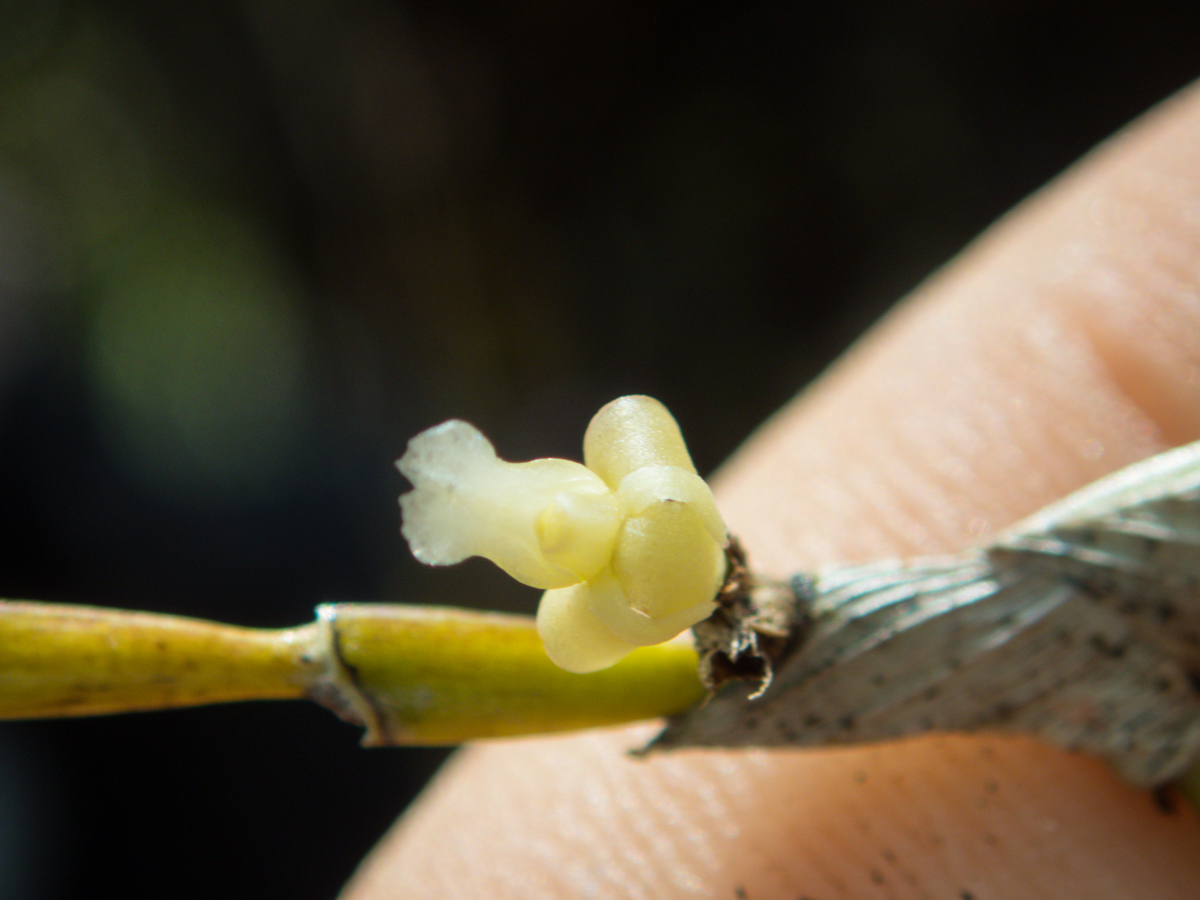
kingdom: Plantae
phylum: Tracheophyta
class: Liliopsida
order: Asparagales
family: Orchidaceae
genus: Dendrobium
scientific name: Dendrobium aloifolium
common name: Aloe-like dendrobium
